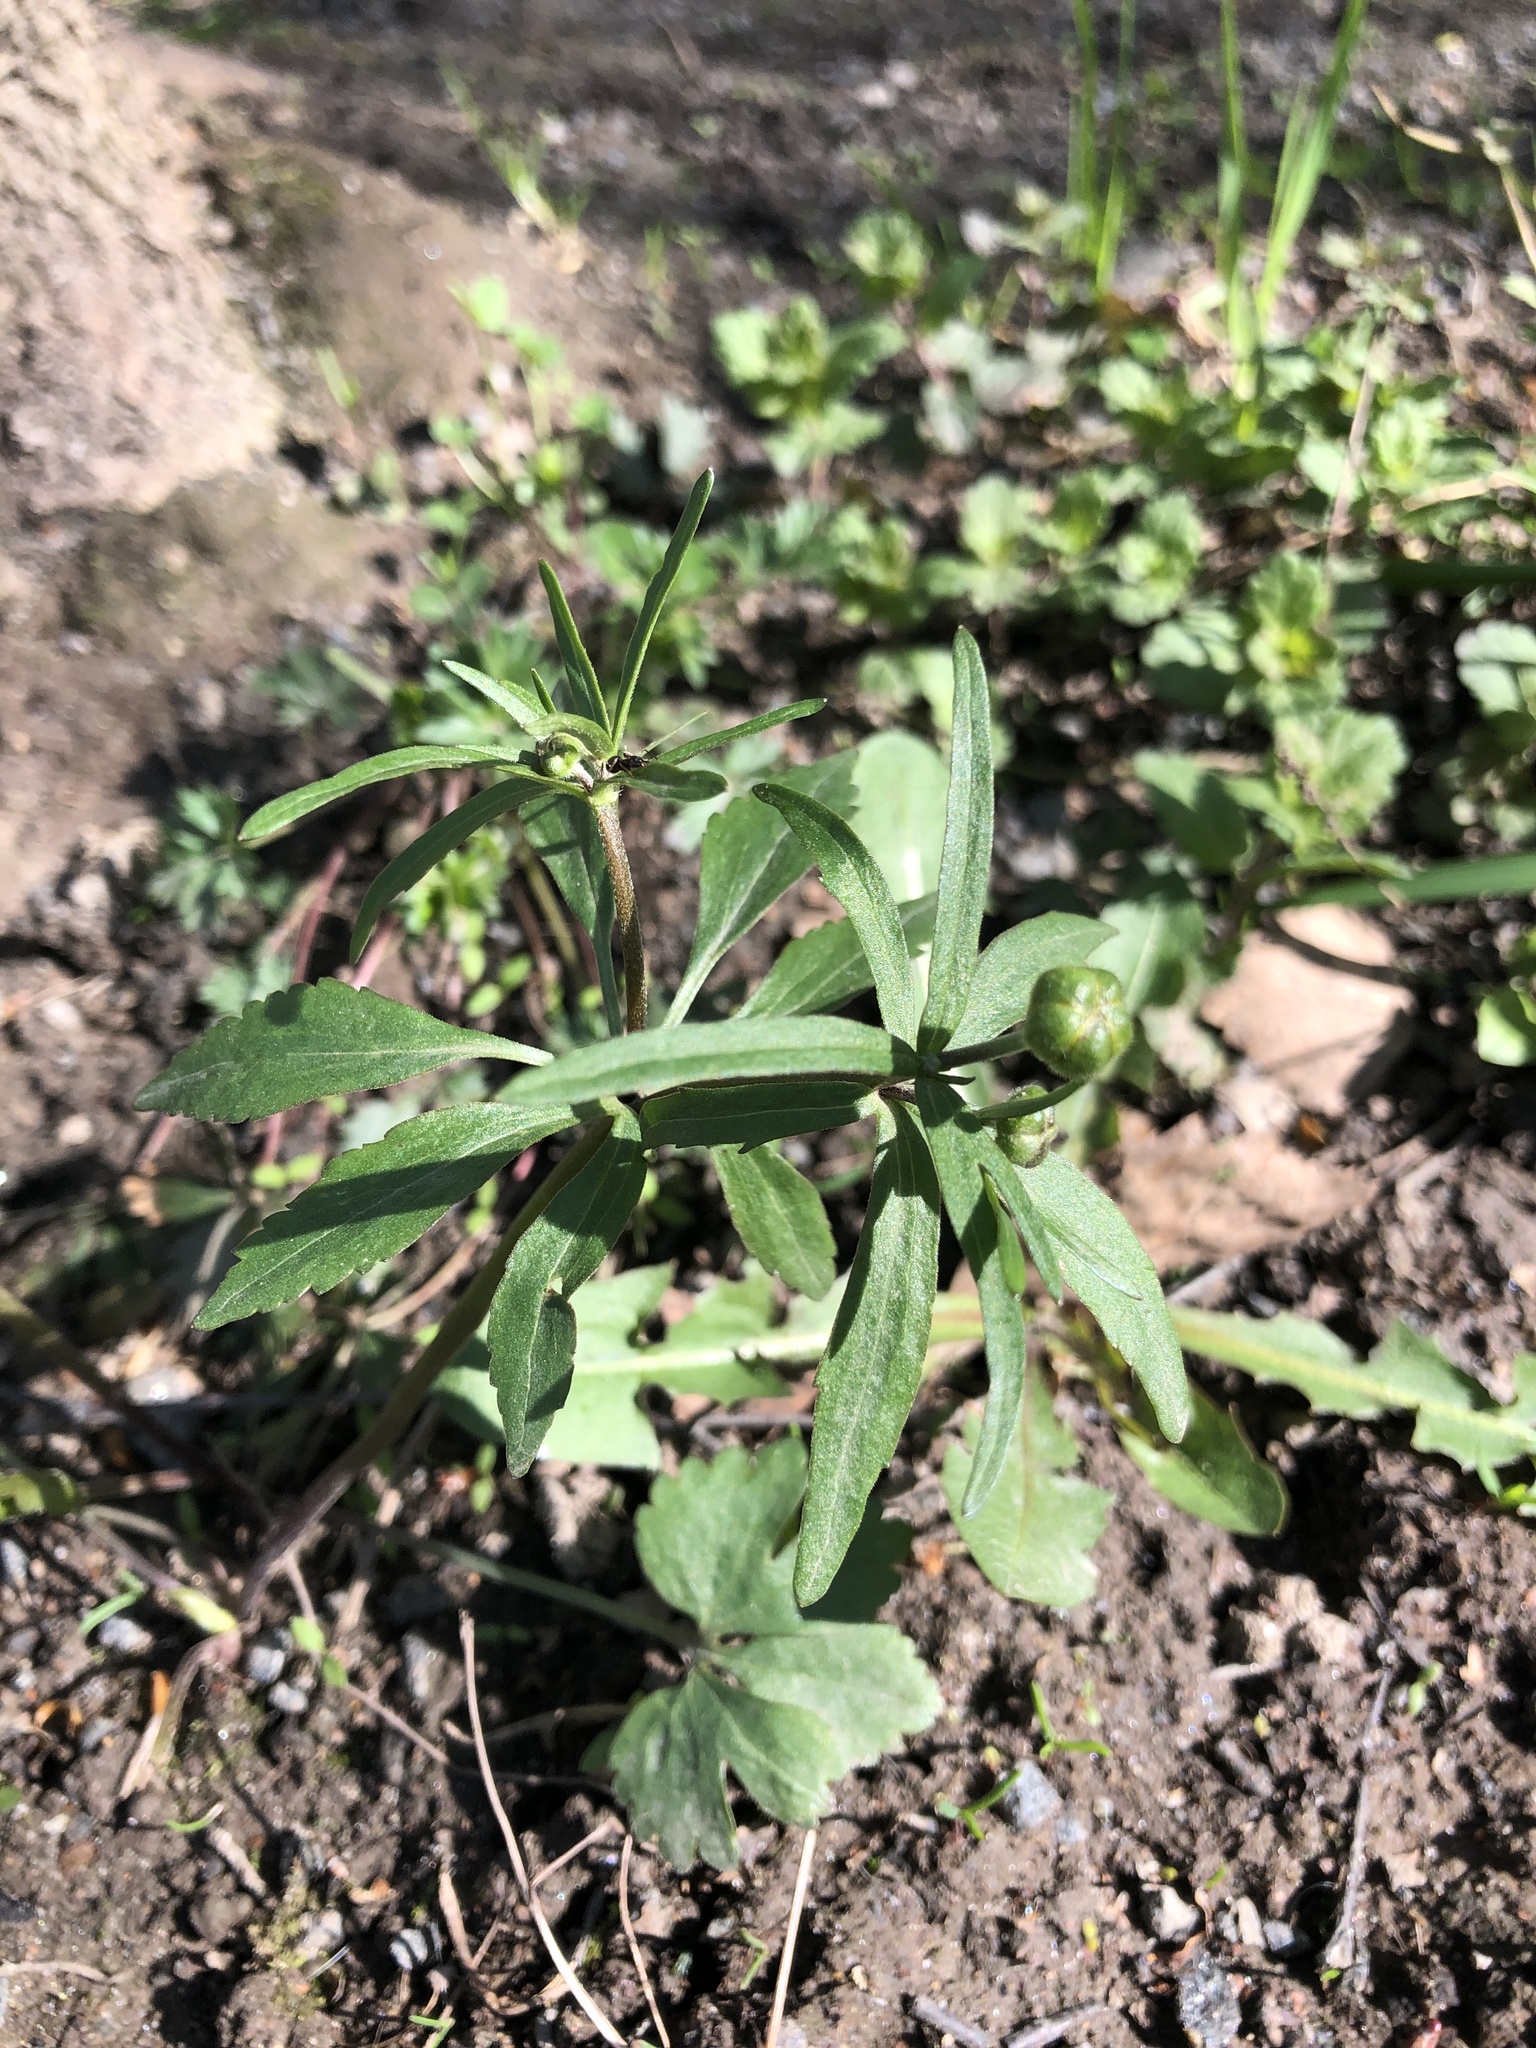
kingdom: Plantae
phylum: Tracheophyta
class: Magnoliopsida
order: Ranunculales
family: Ranunculaceae
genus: Ranunculus
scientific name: Ranunculus fallax
